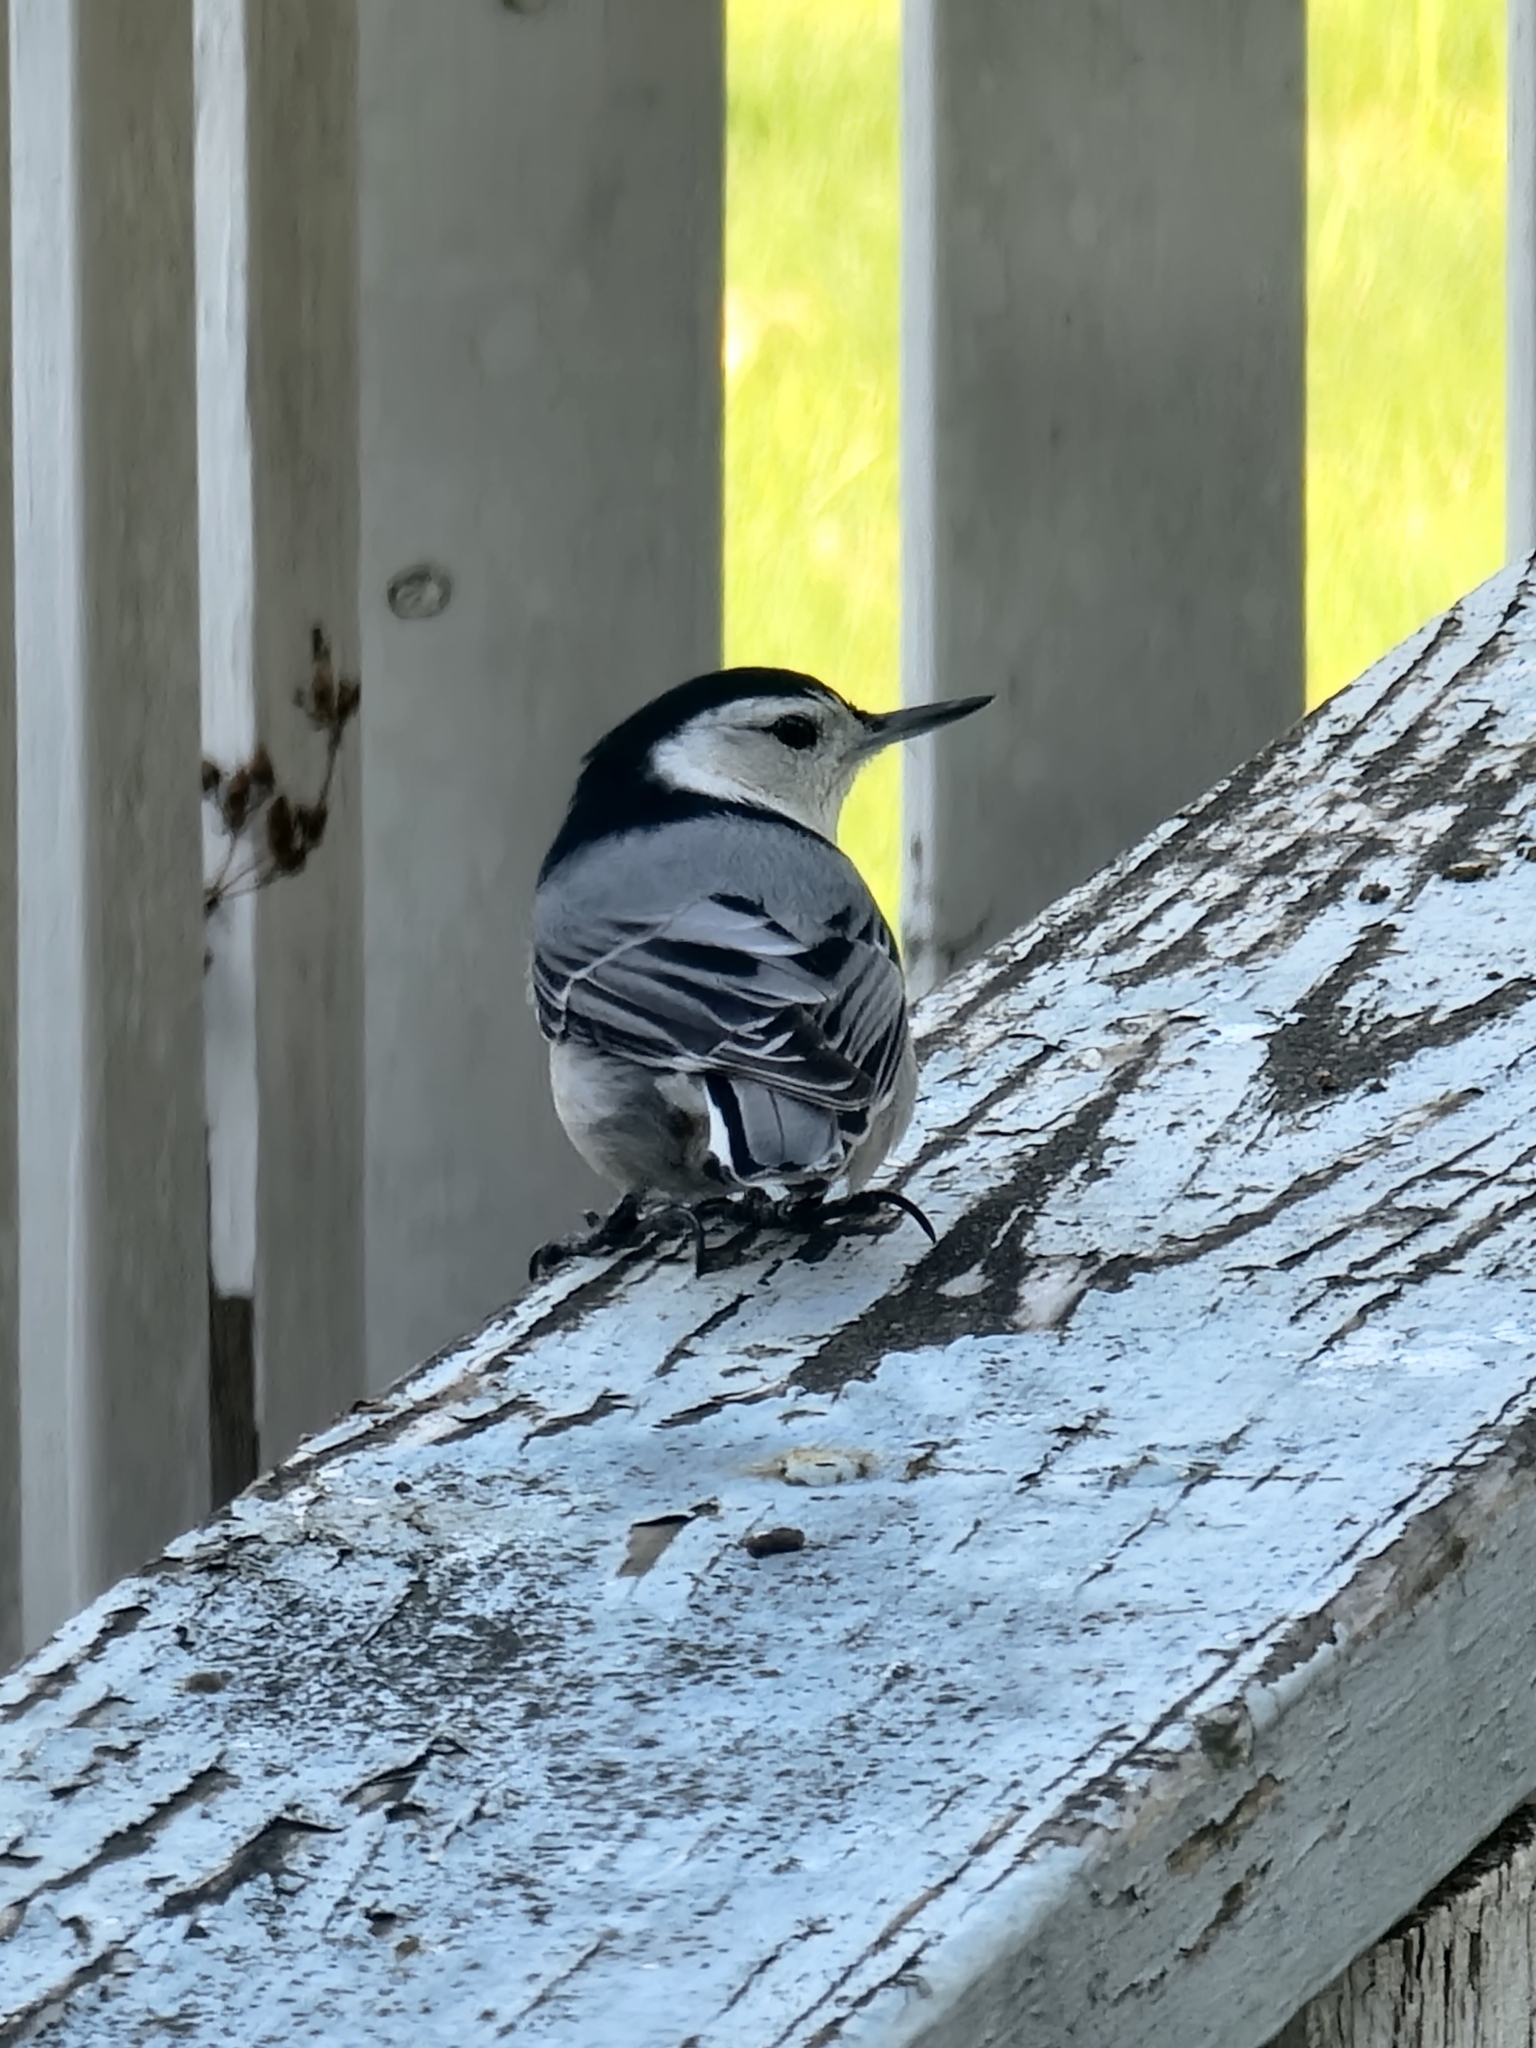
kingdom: Animalia
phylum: Chordata
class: Aves
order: Passeriformes
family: Sittidae
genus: Sitta
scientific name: Sitta carolinensis
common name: White-breasted nuthatch
